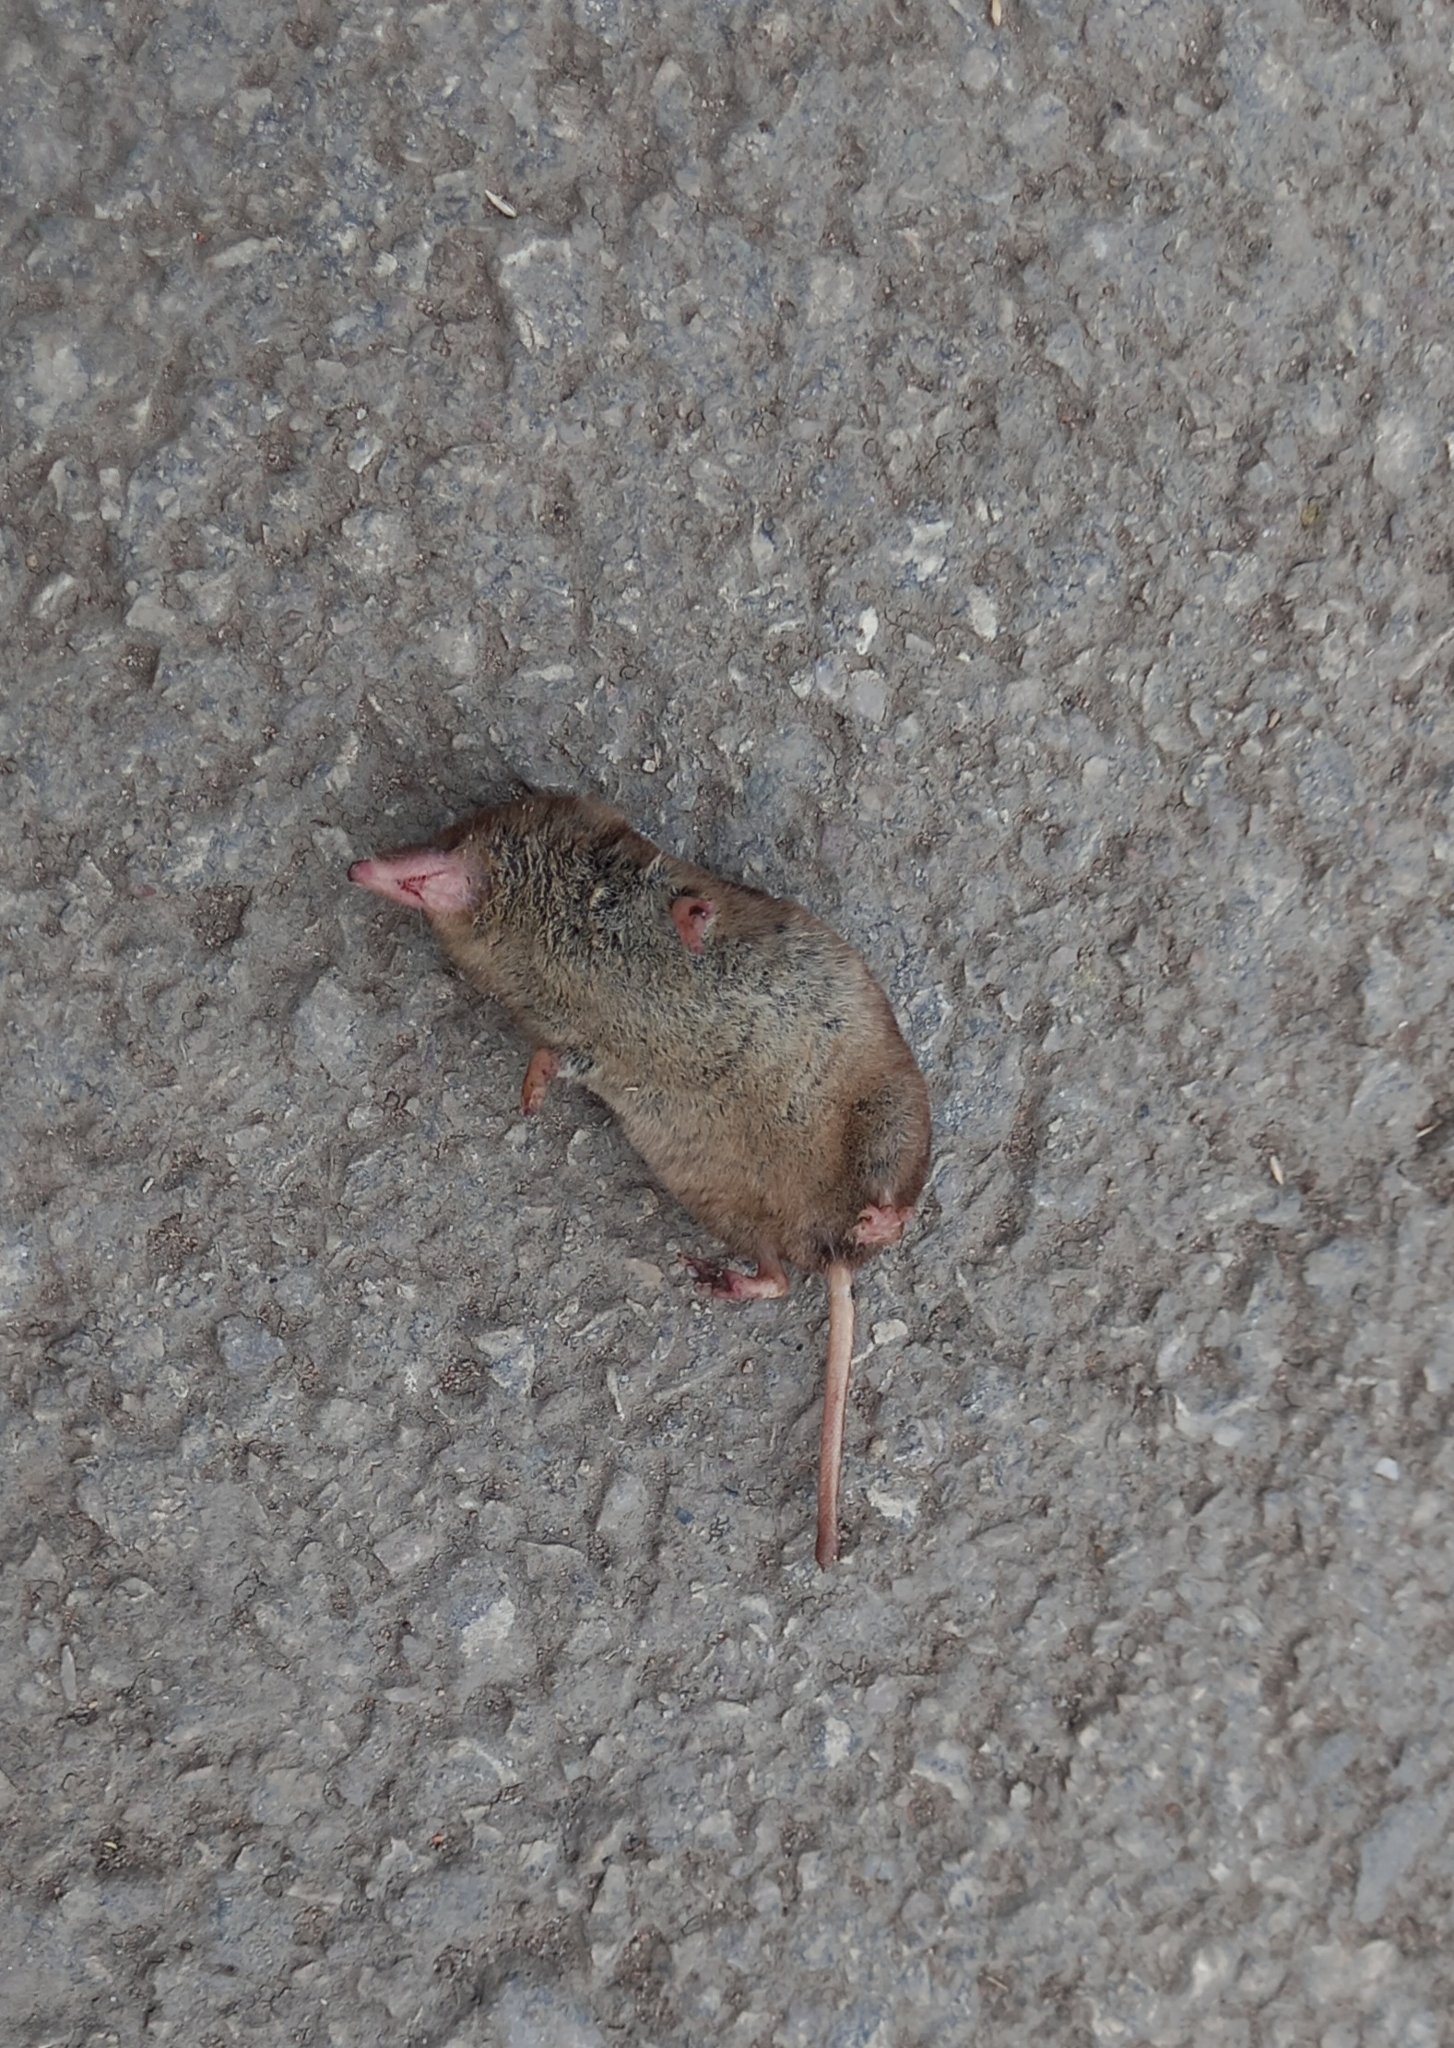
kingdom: Animalia
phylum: Chordata
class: Mammalia
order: Soricomorpha
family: Soricidae
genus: Sorex
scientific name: Sorex araneus
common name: Common shrew
